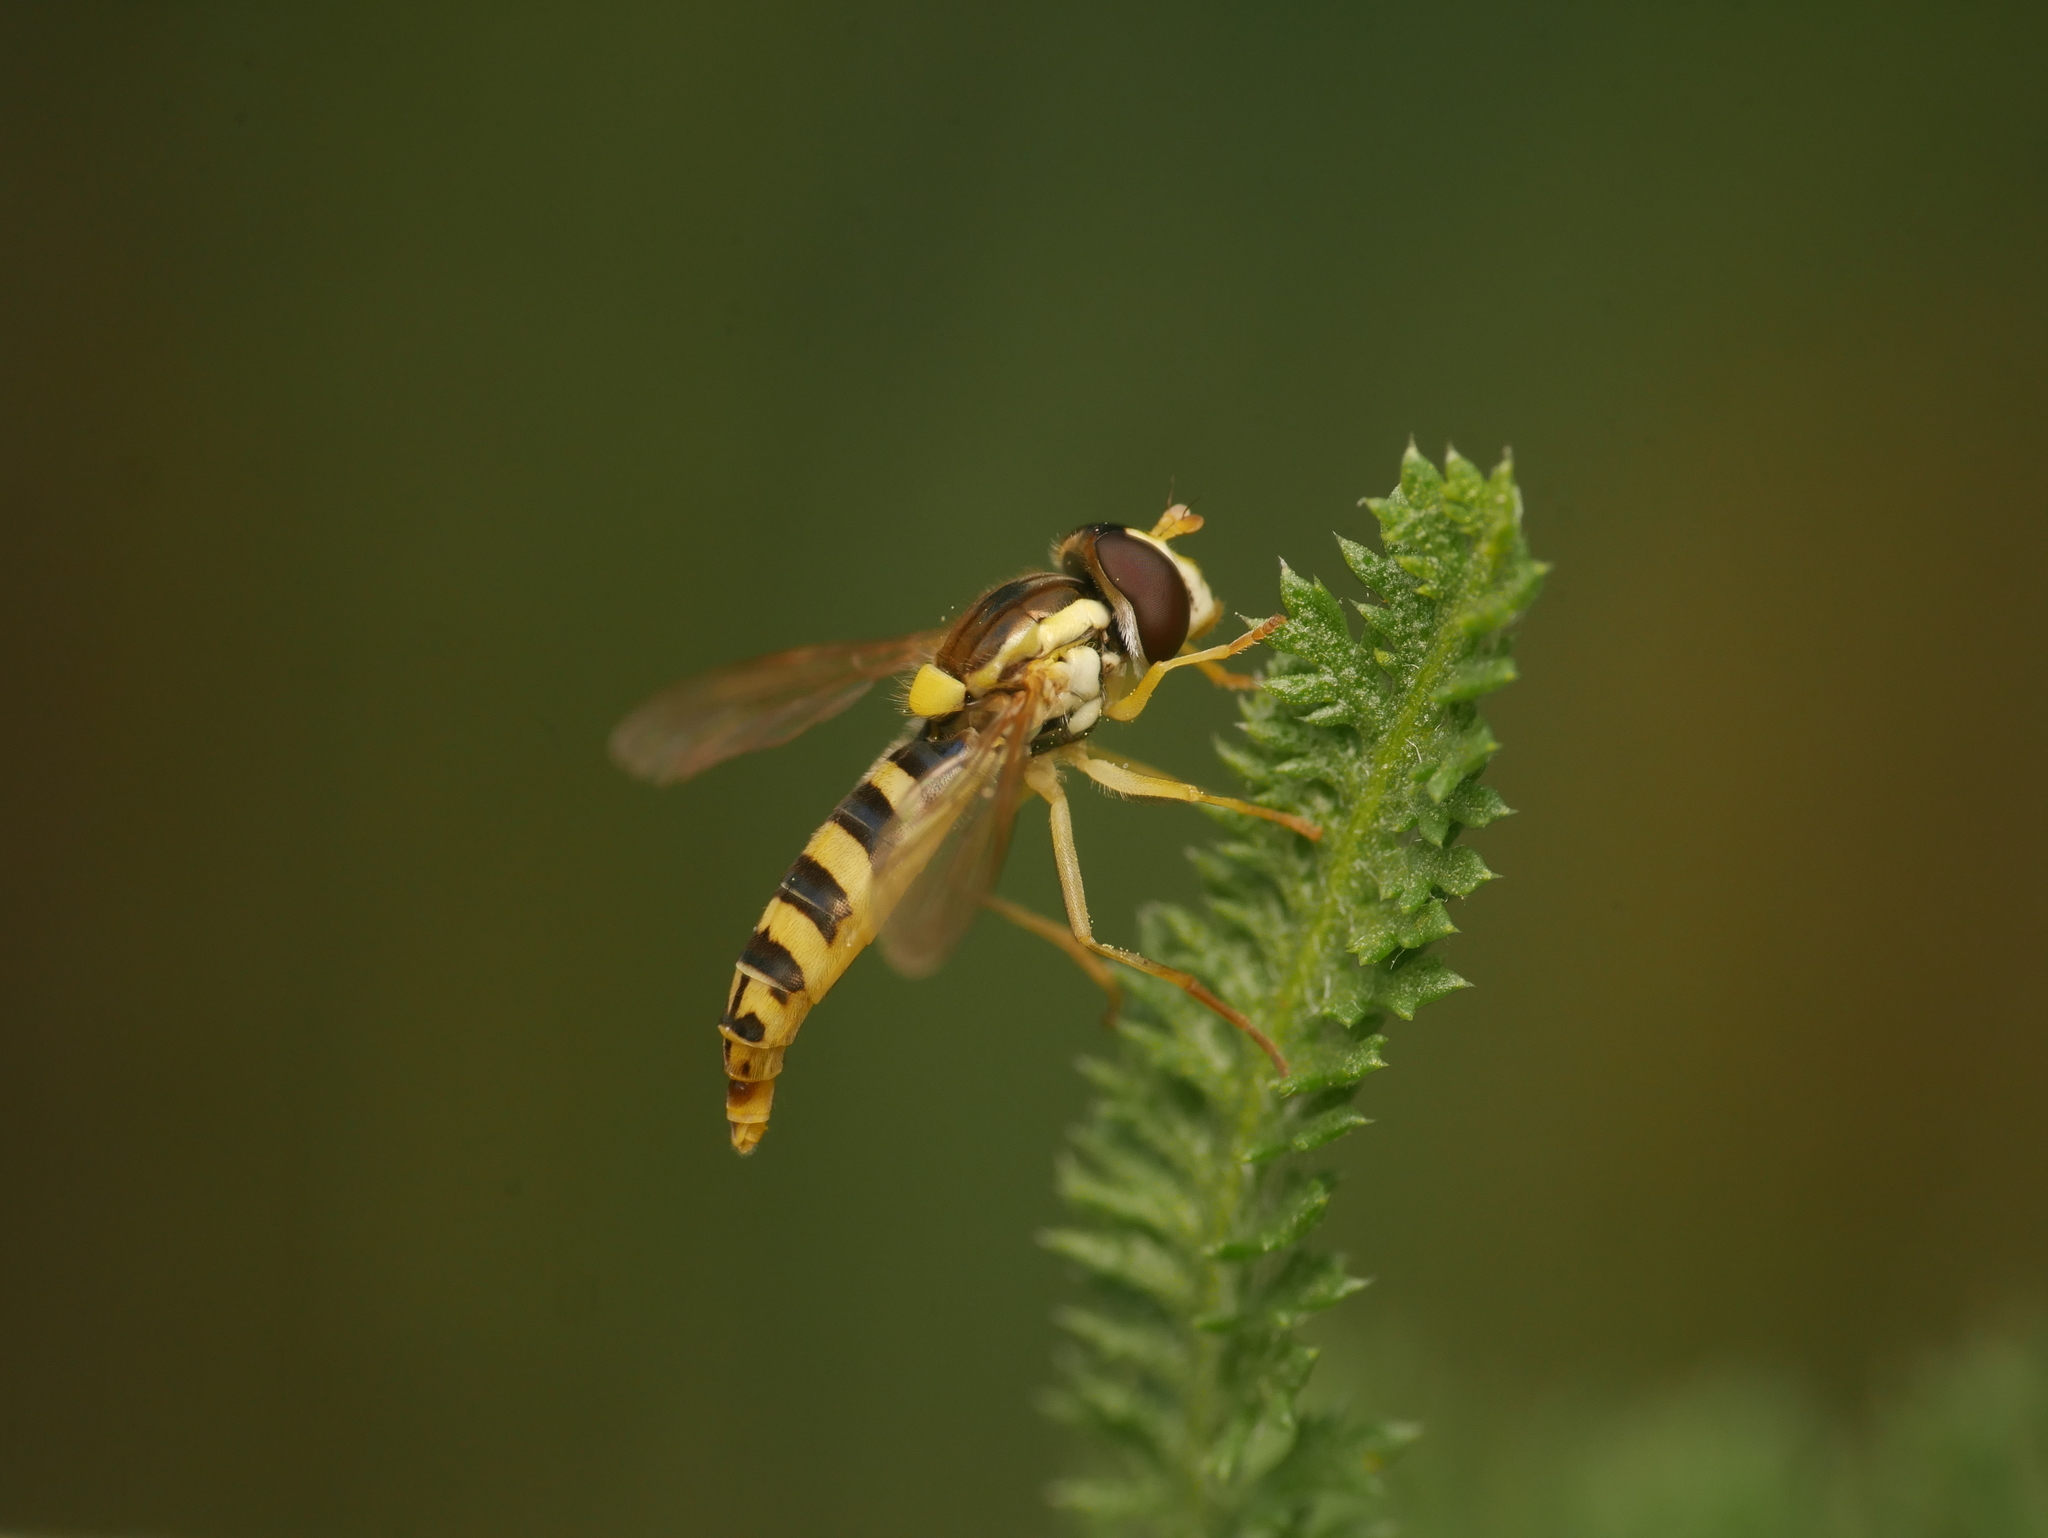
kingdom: Animalia
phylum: Arthropoda
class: Insecta
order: Diptera
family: Syrphidae
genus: Sphaerophoria
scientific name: Sphaerophoria
